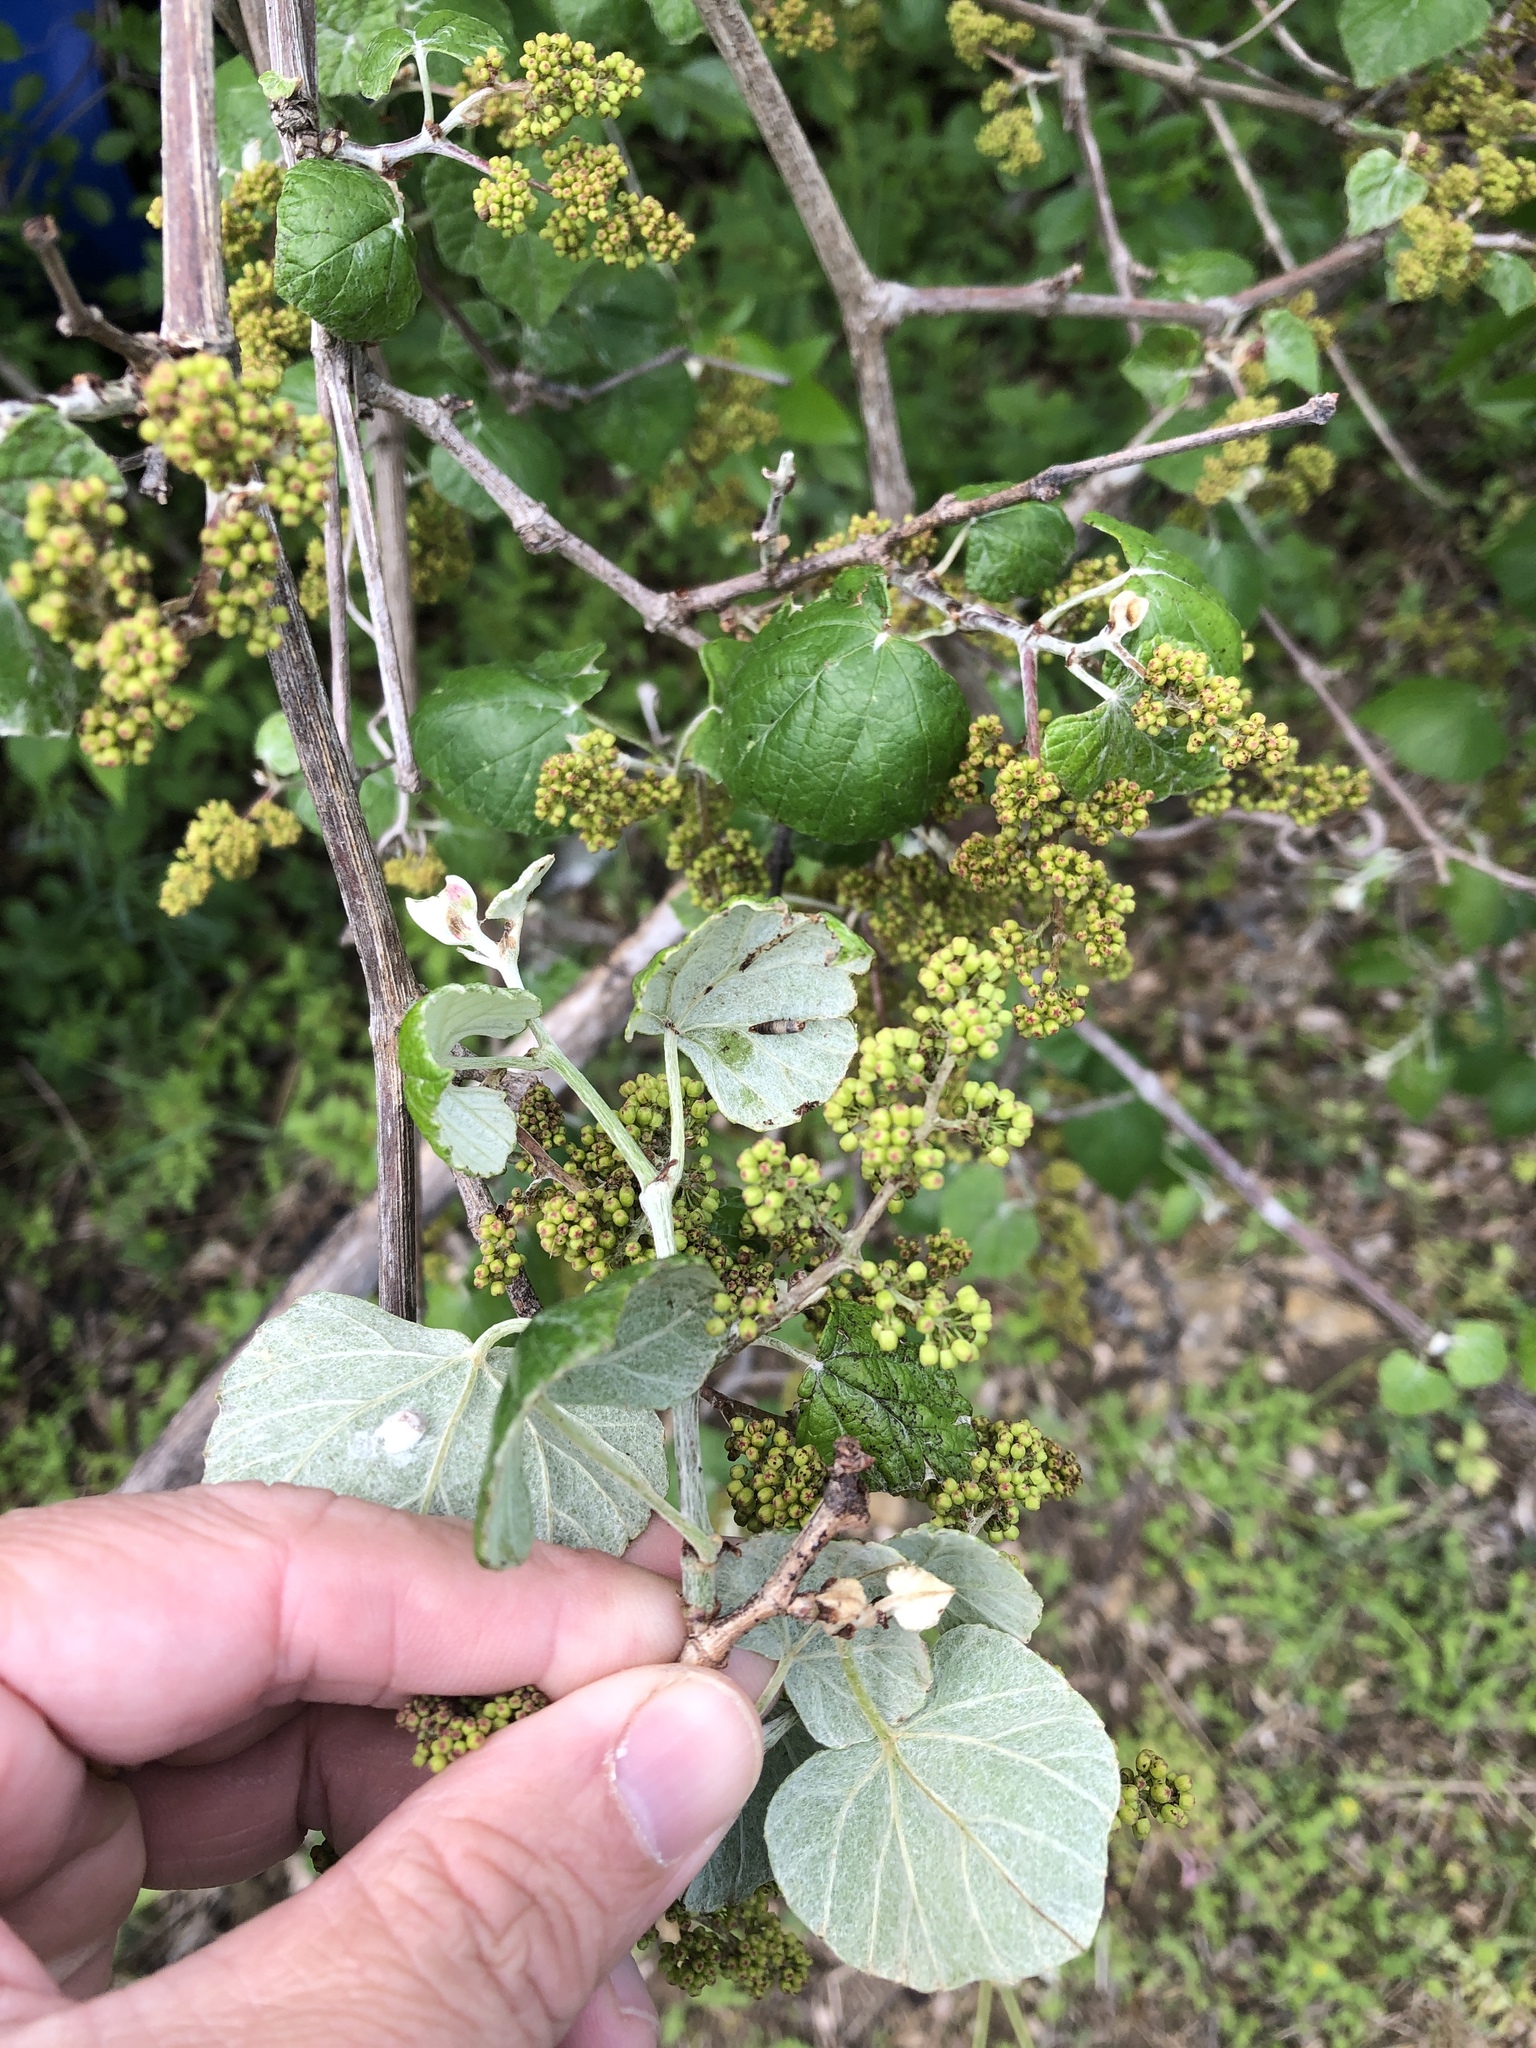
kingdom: Plantae
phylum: Tracheophyta
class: Magnoliopsida
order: Vitales
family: Vitaceae
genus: Vitis
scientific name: Vitis mustangensis
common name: Mustang grape
